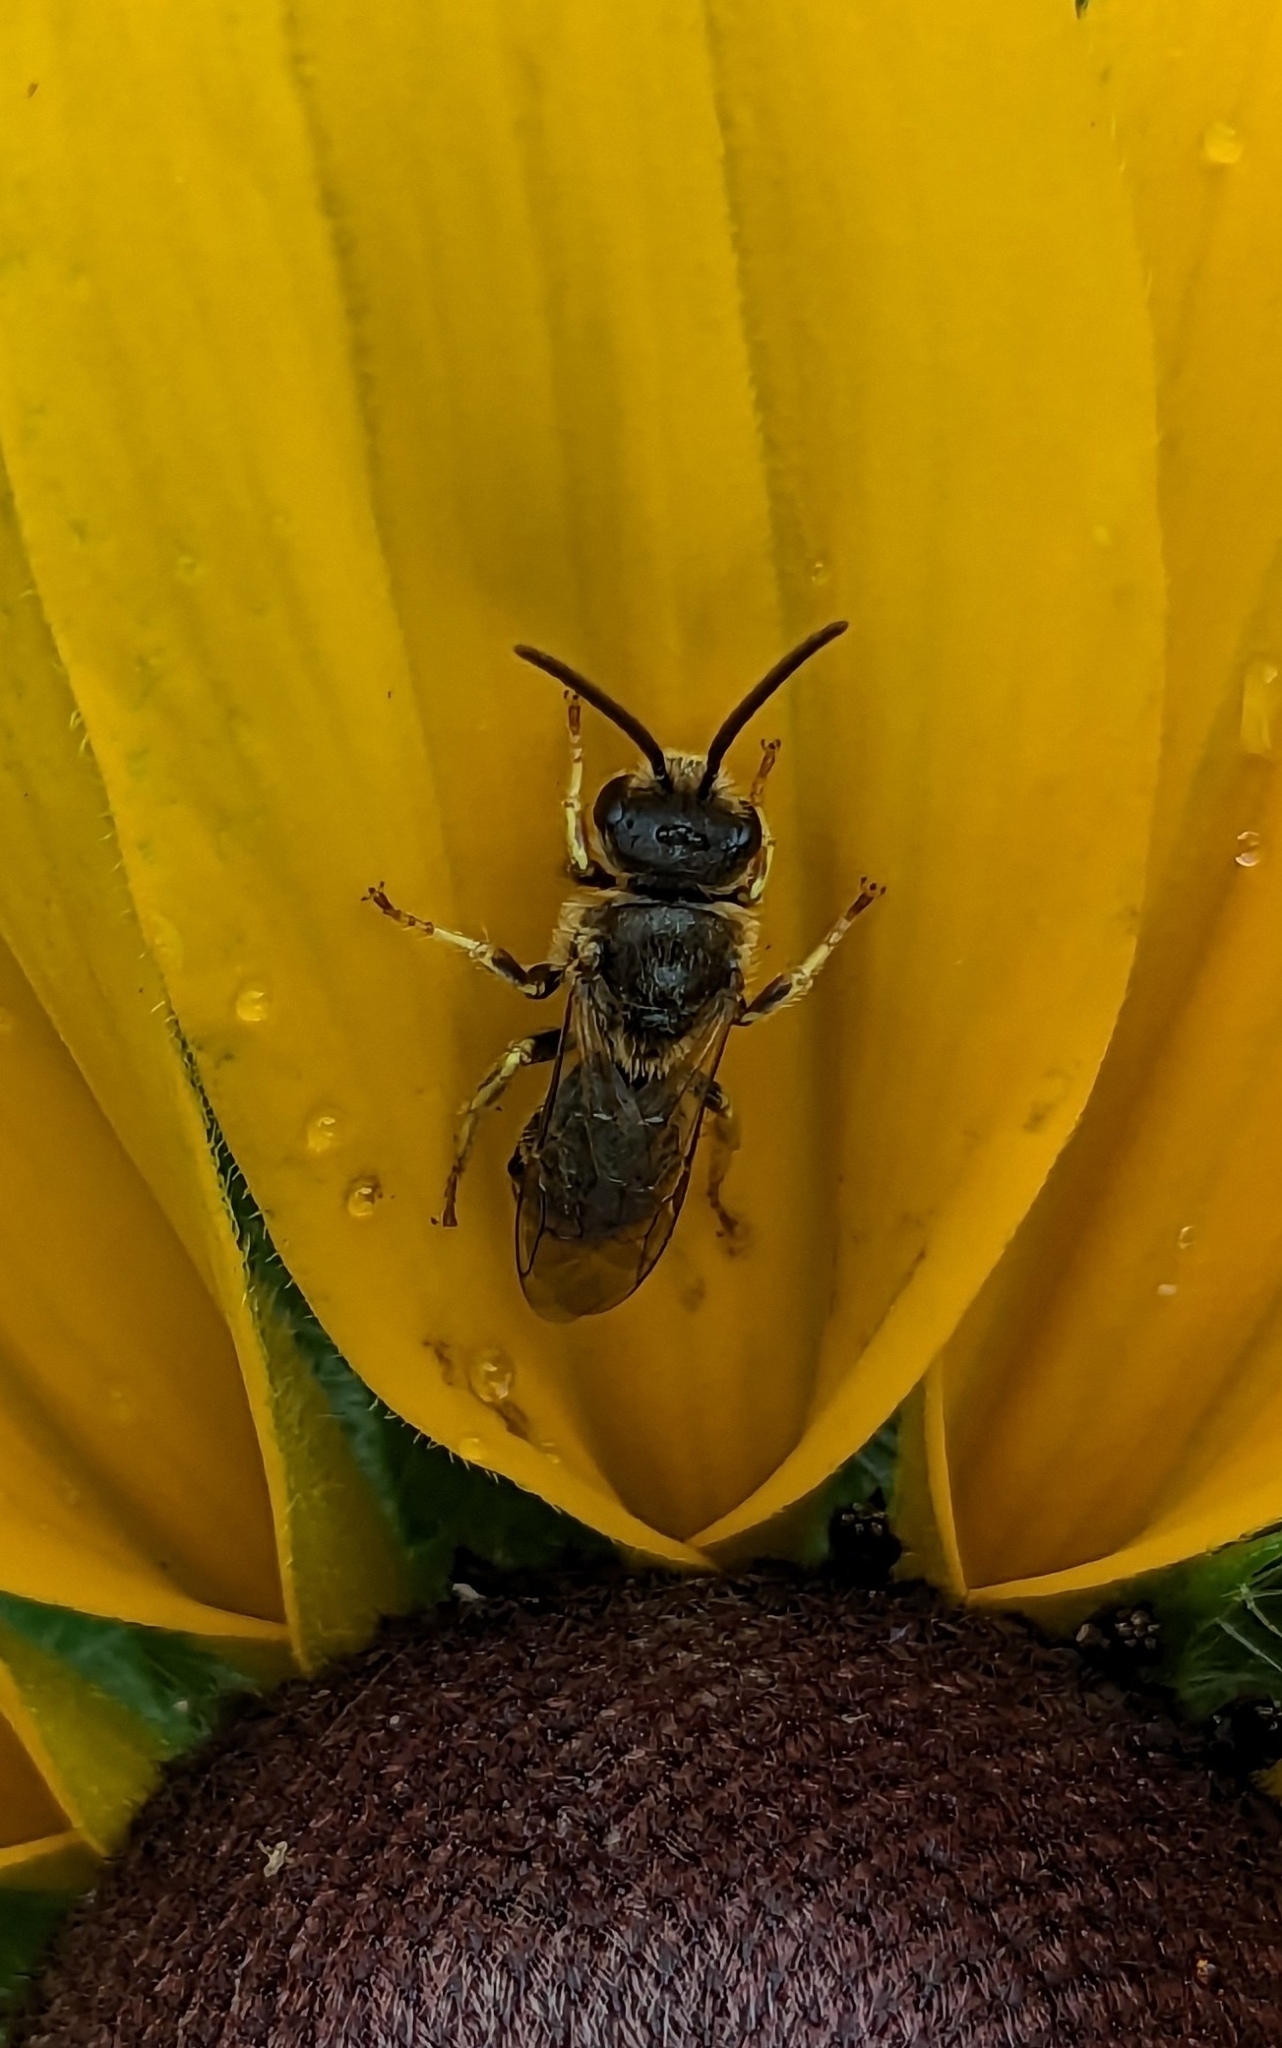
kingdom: Animalia
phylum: Arthropoda
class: Insecta
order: Hymenoptera
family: Halictidae
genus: Halictus
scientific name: Halictus ligatus
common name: Ligated furrow bee
